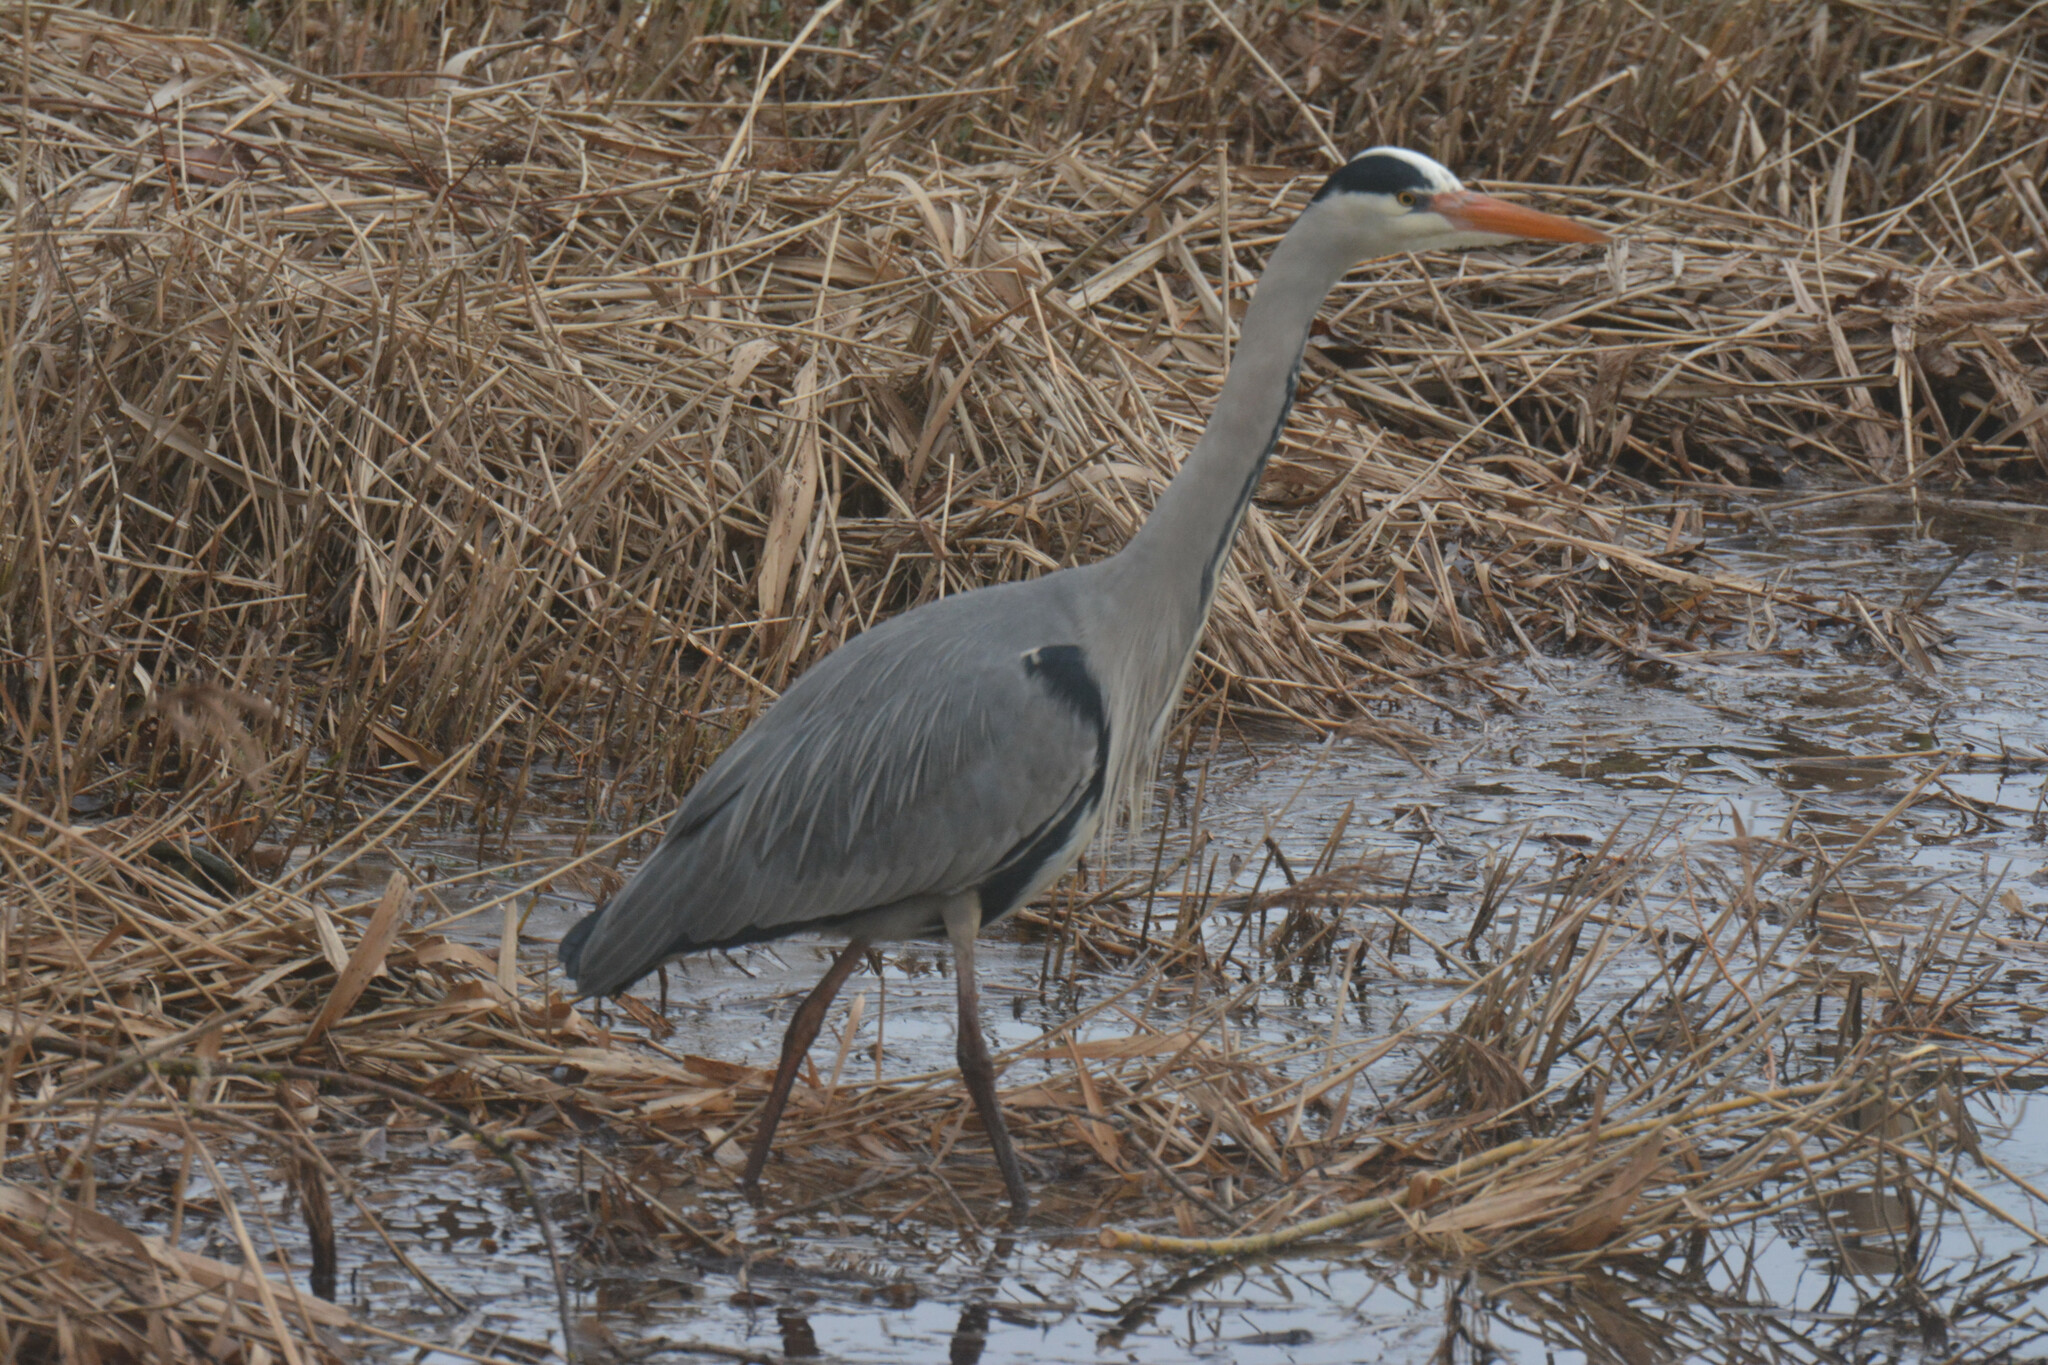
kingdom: Animalia
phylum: Chordata
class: Aves
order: Pelecaniformes
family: Ardeidae
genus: Ardea
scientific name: Ardea cinerea
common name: Grey heron
